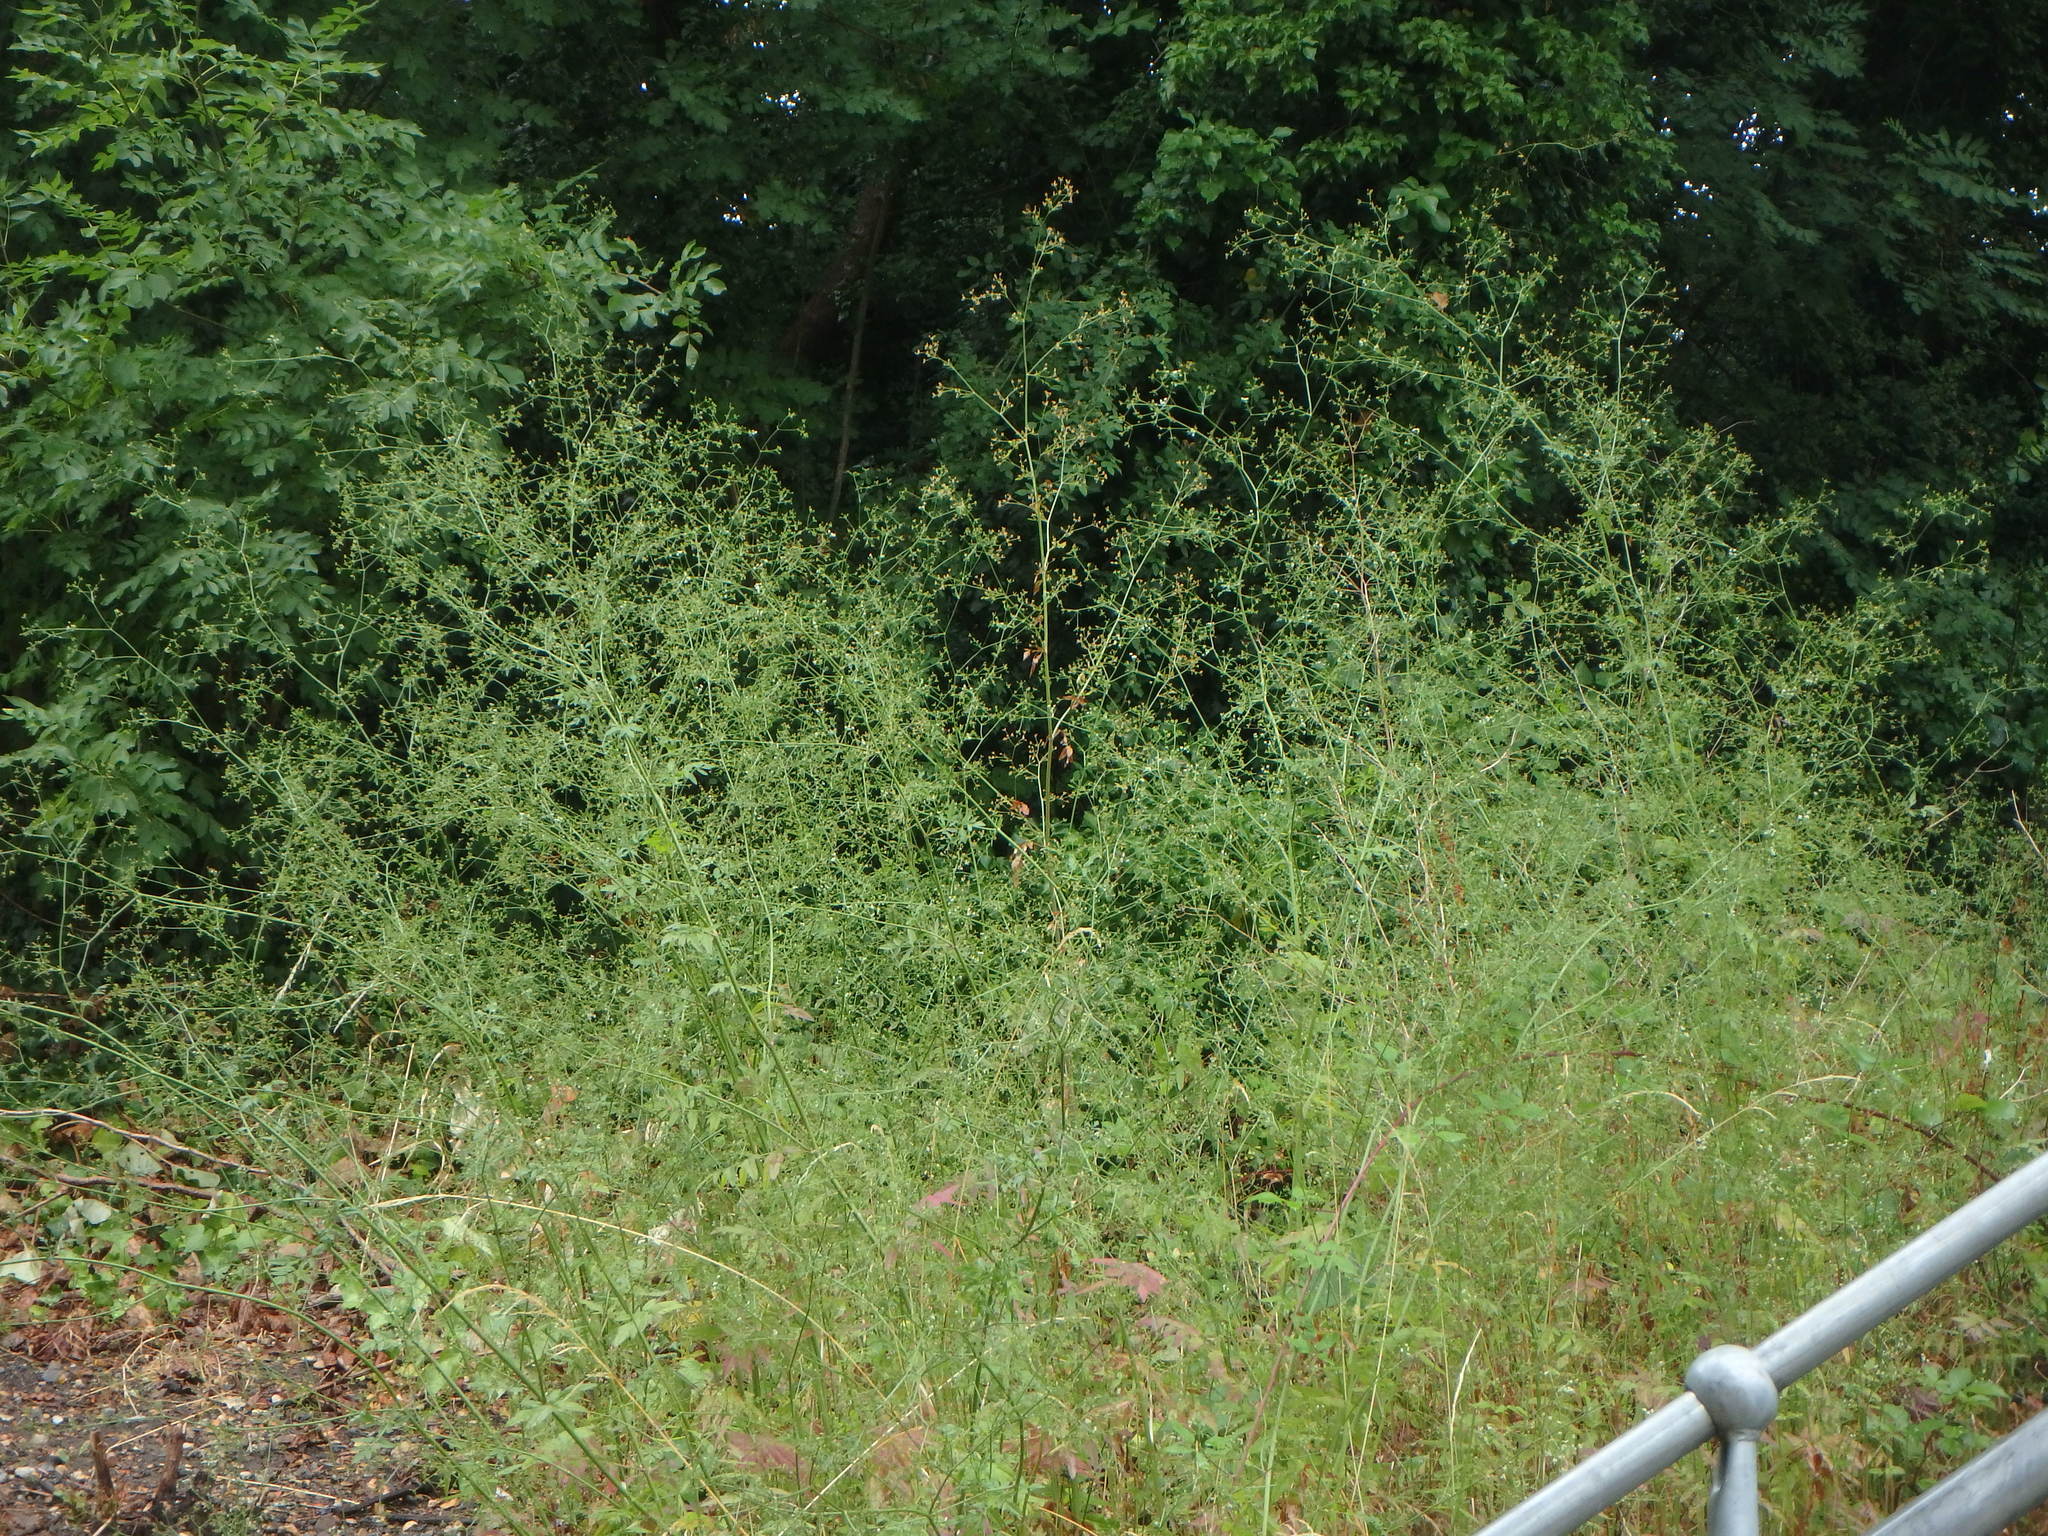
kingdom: Plantae
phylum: Tracheophyta
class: Magnoliopsida
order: Apiales
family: Apiaceae
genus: Sison
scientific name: Sison amomum
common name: Stone-parsley
